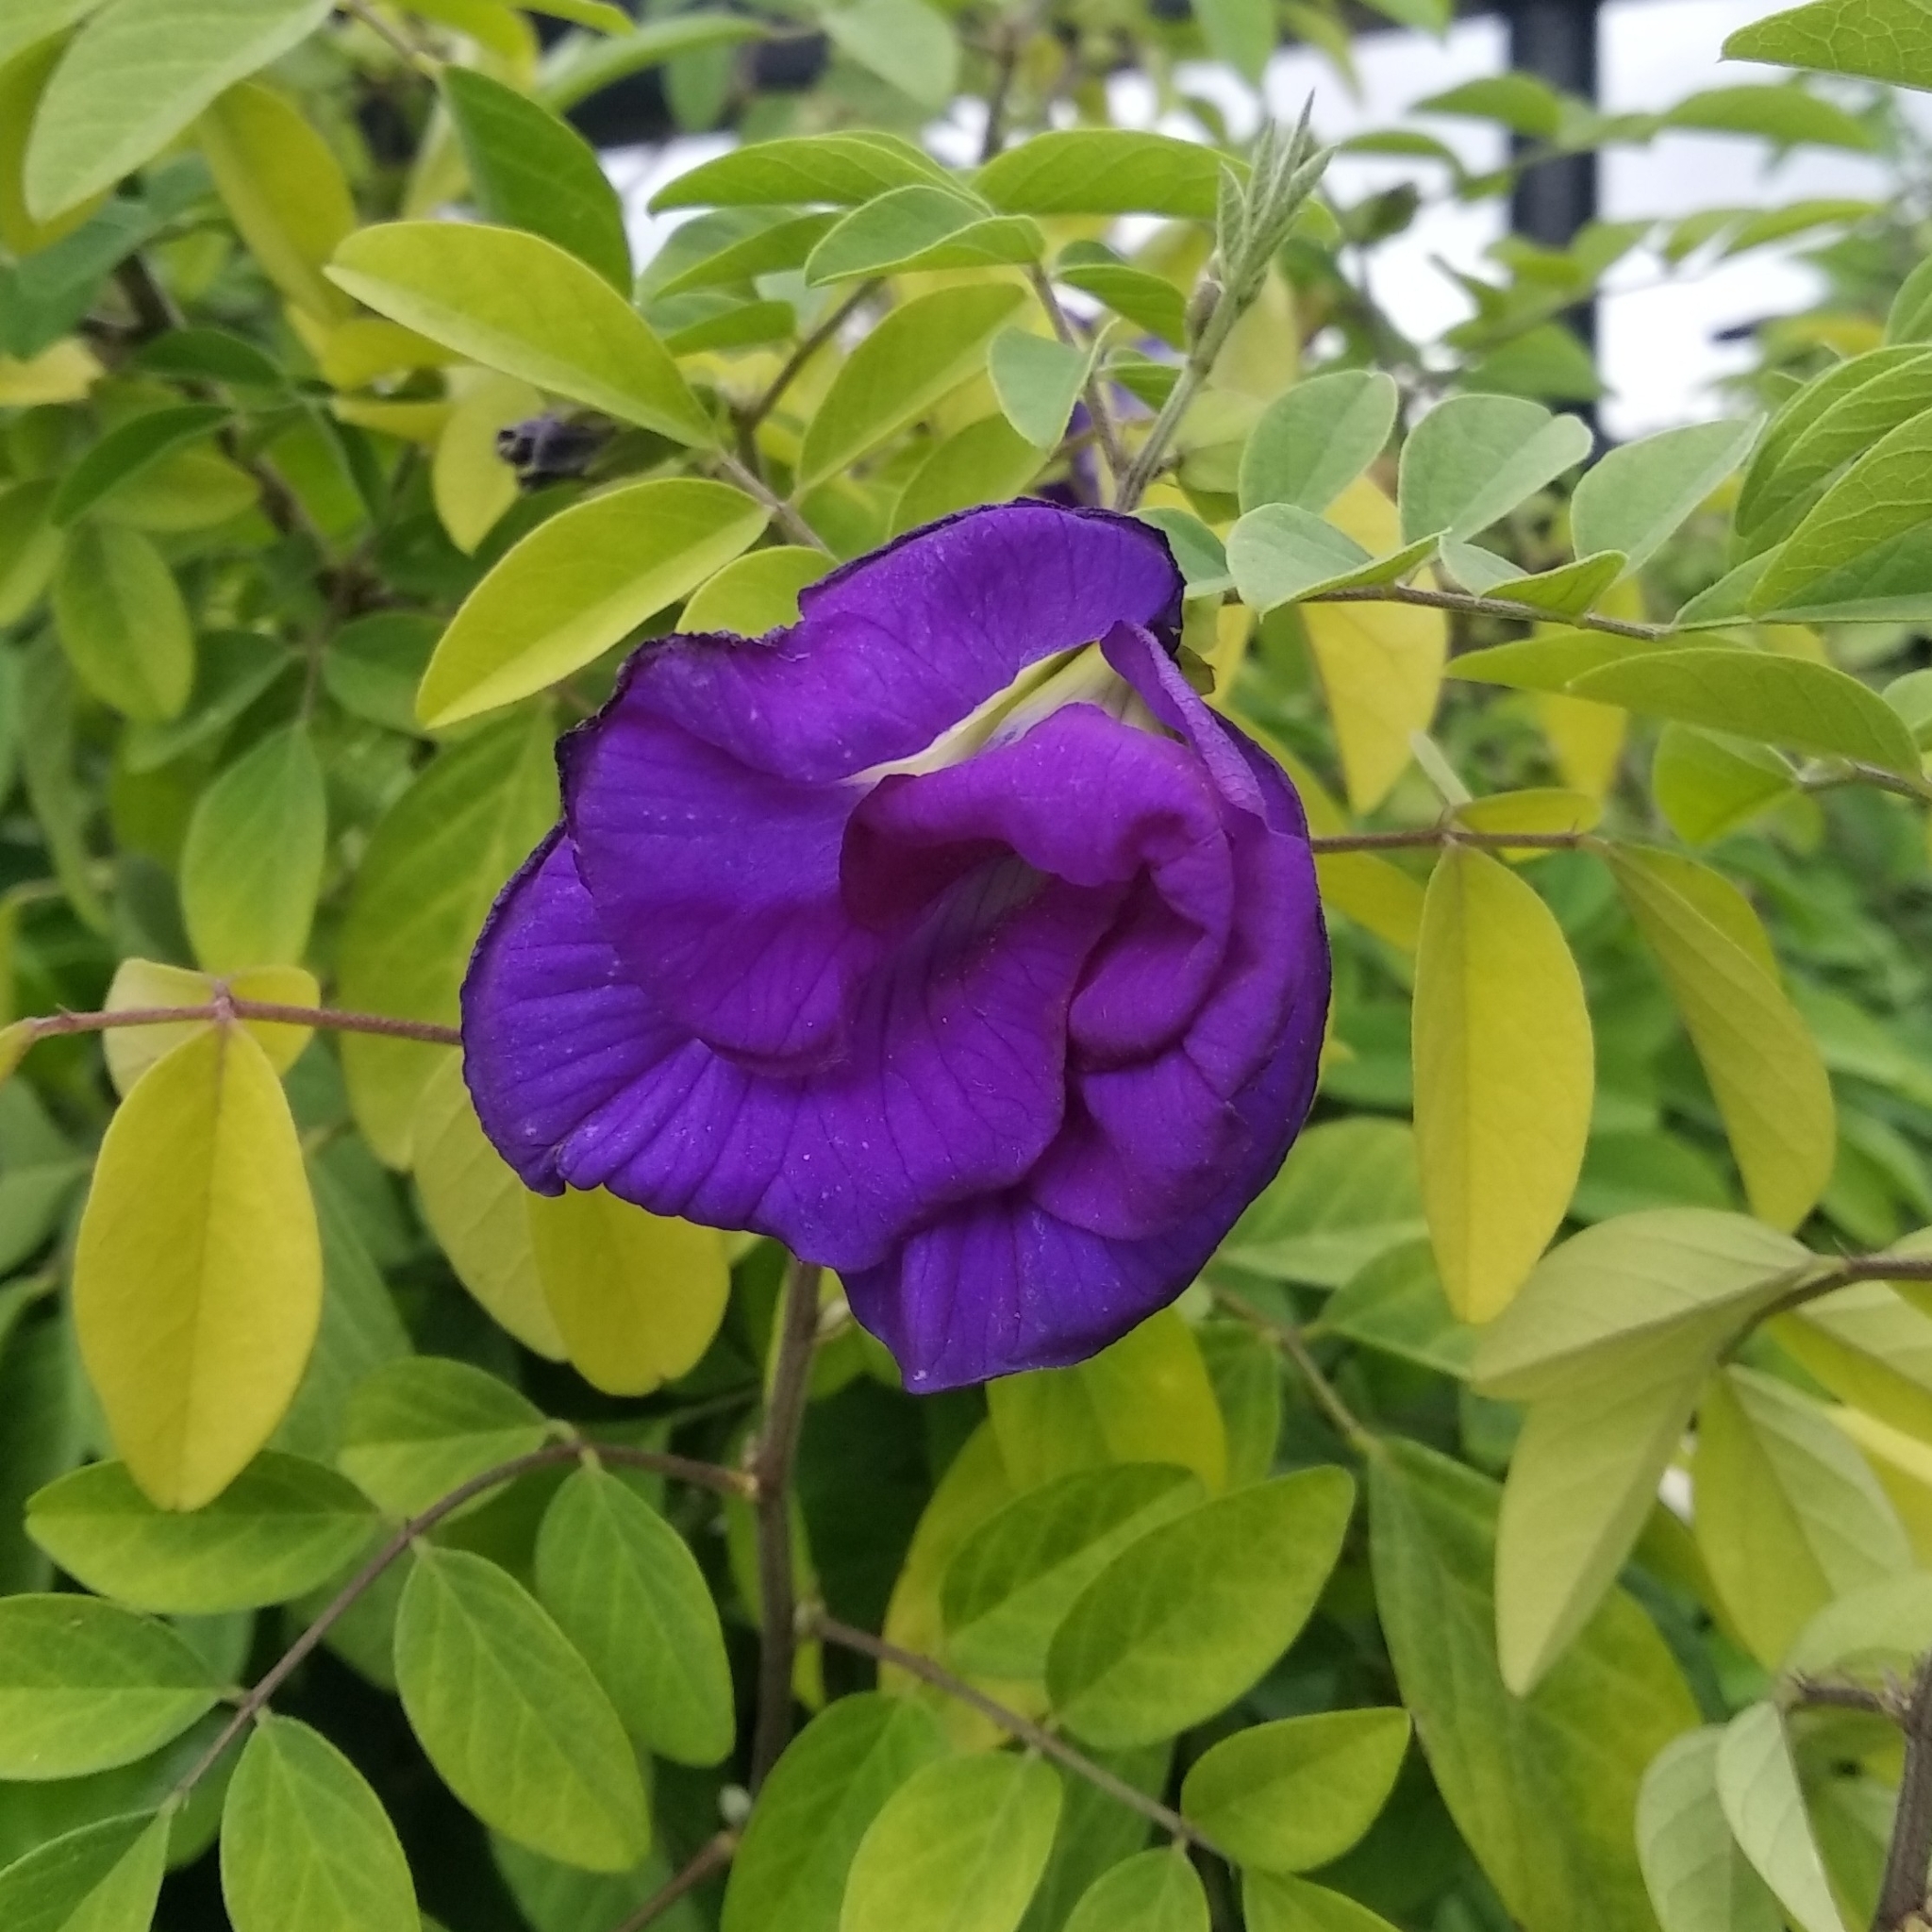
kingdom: Plantae
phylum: Tracheophyta
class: Magnoliopsida
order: Fabales
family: Fabaceae
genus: Clitoria
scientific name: Clitoria ternatea
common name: Asian pigeonwings
